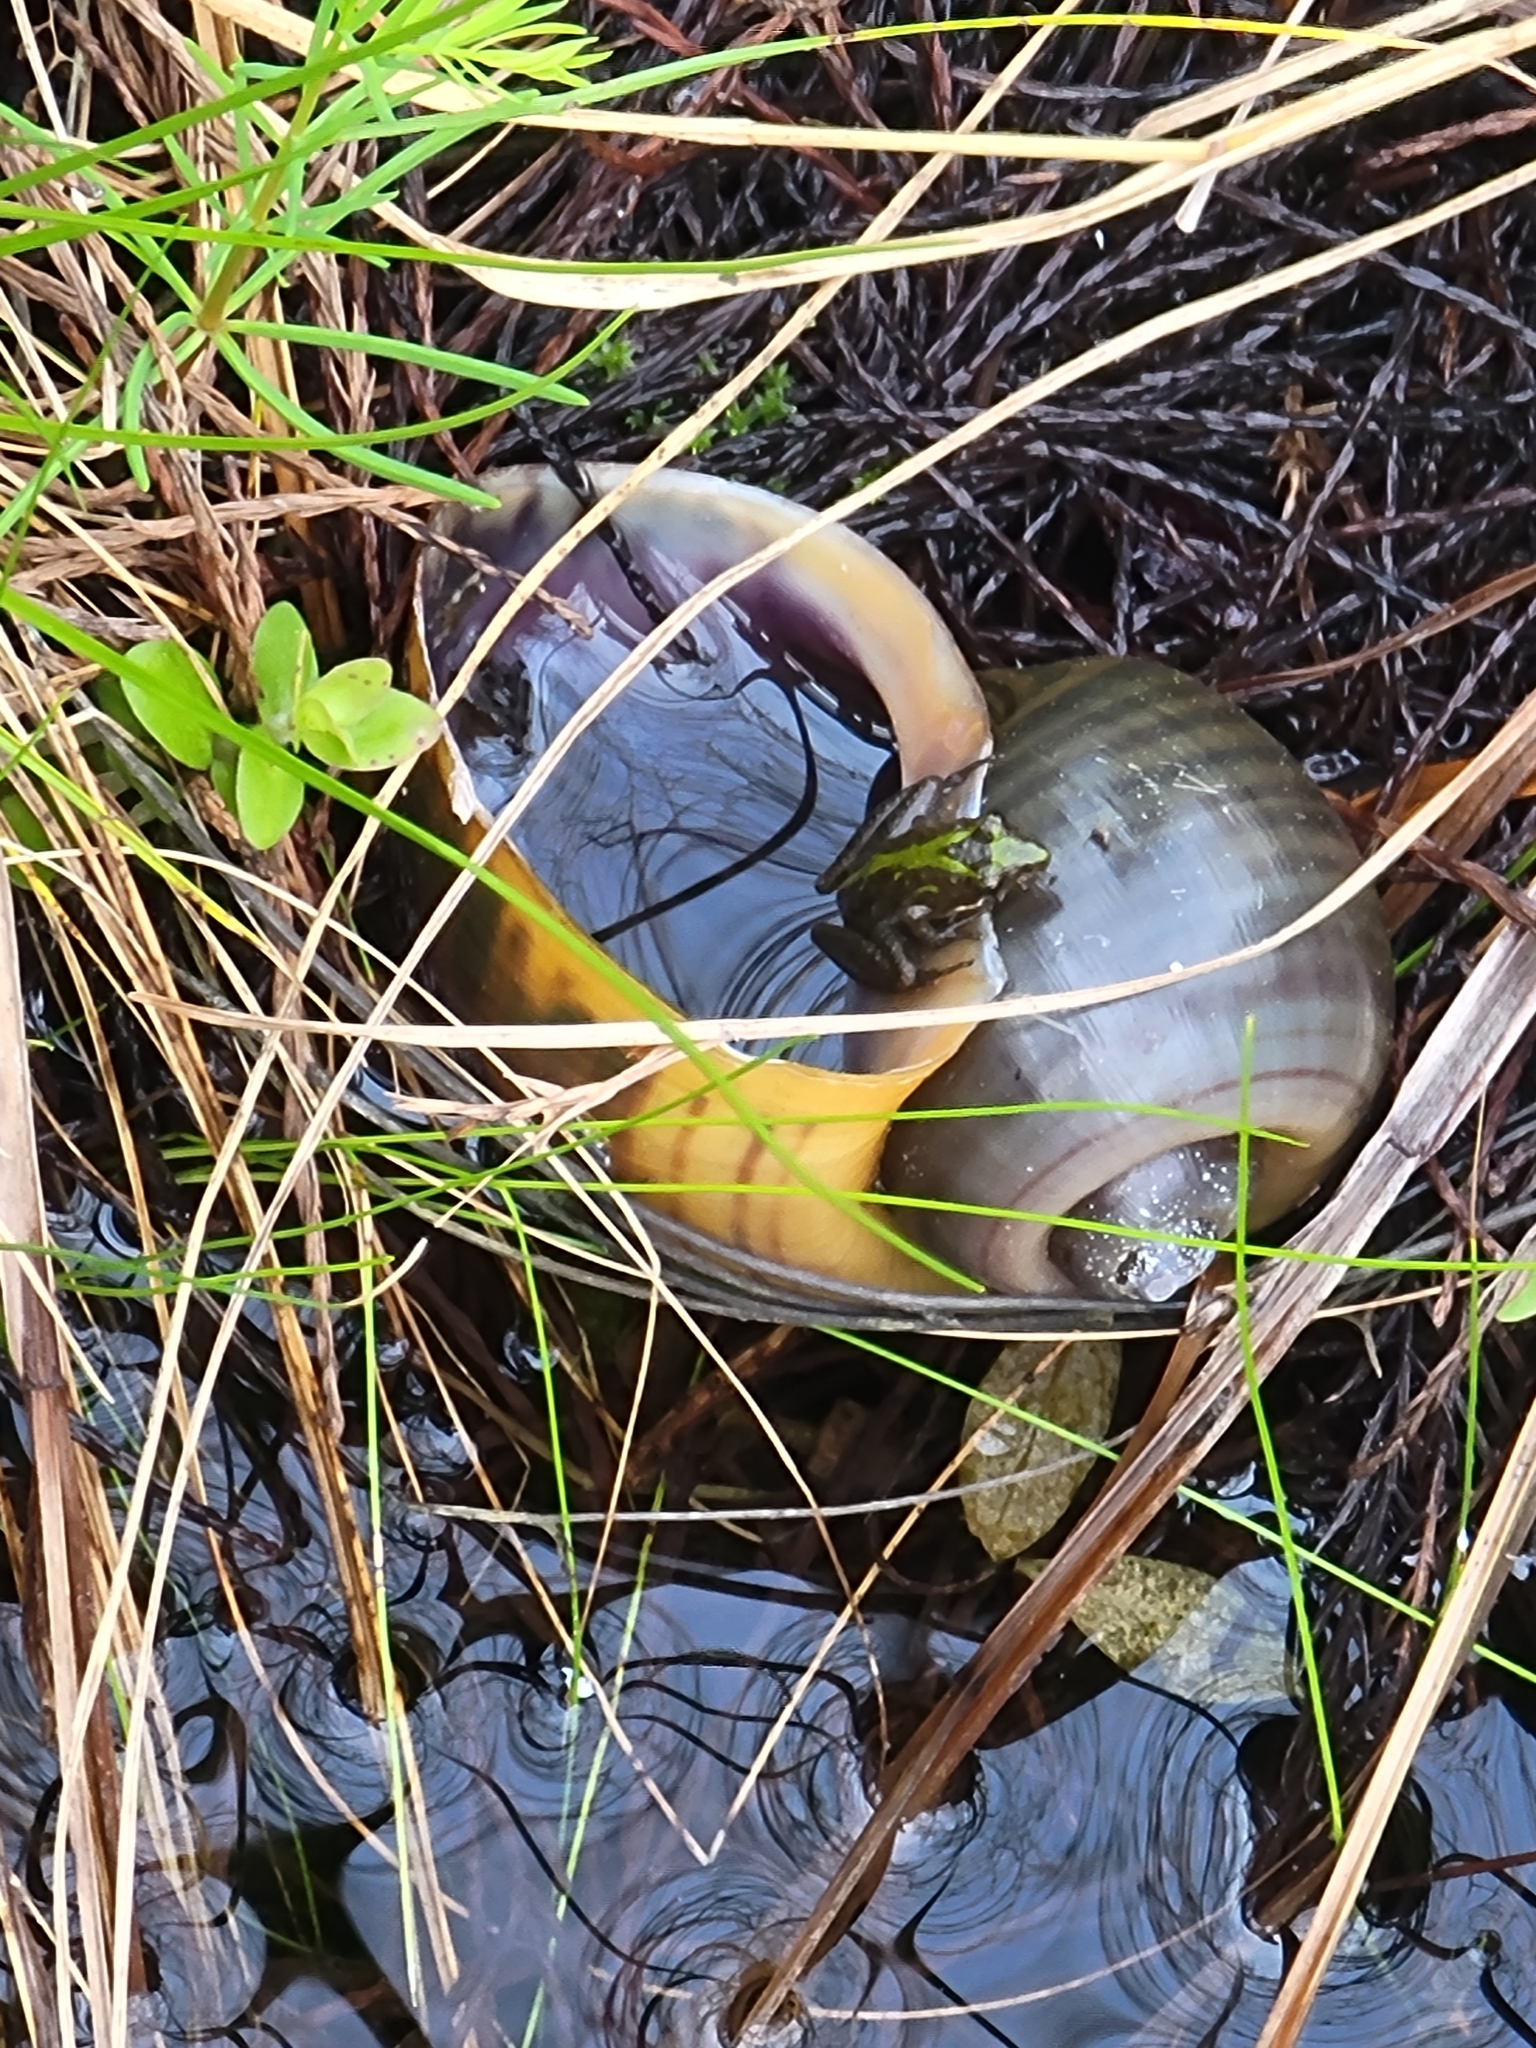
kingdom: Animalia
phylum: Chordata
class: Amphibia
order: Anura
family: Hylidae
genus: Acris
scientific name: Acris gryllus
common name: Southern cricket frog
